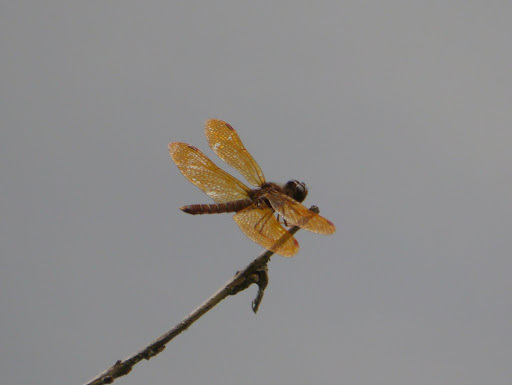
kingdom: Animalia
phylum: Arthropoda
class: Insecta
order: Odonata
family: Libellulidae
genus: Perithemis
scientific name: Perithemis tenera
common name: Eastern amberwing
